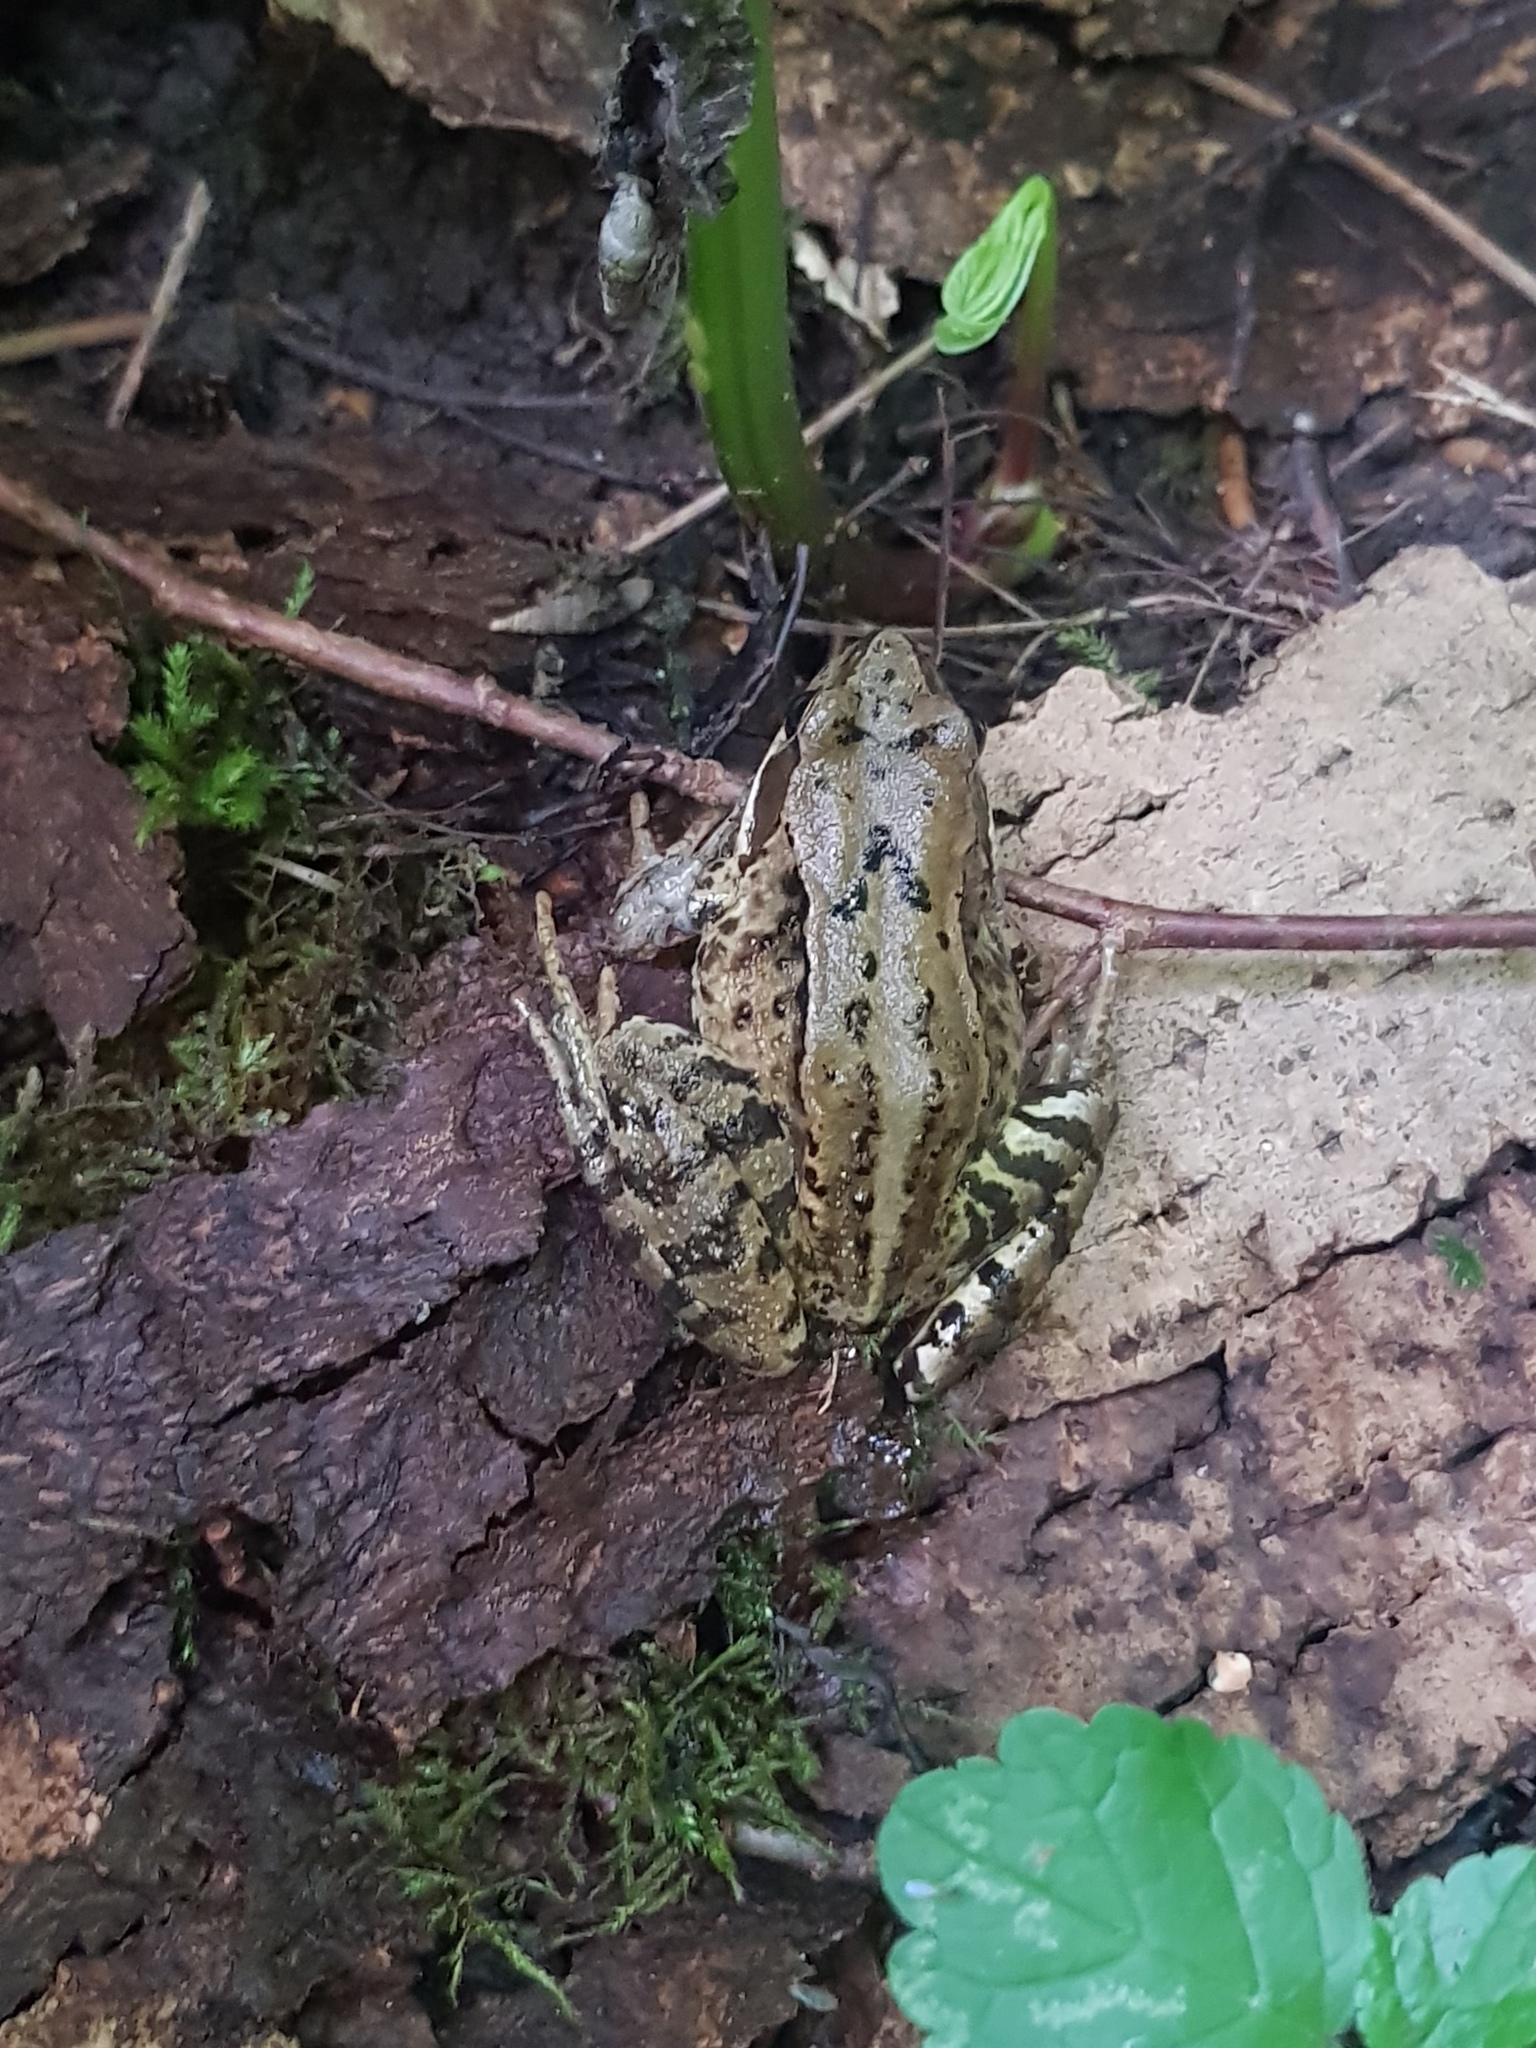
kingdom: Animalia
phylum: Chordata
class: Amphibia
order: Anura
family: Ranidae
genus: Rana
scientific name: Rana temporaria
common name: Common frog
